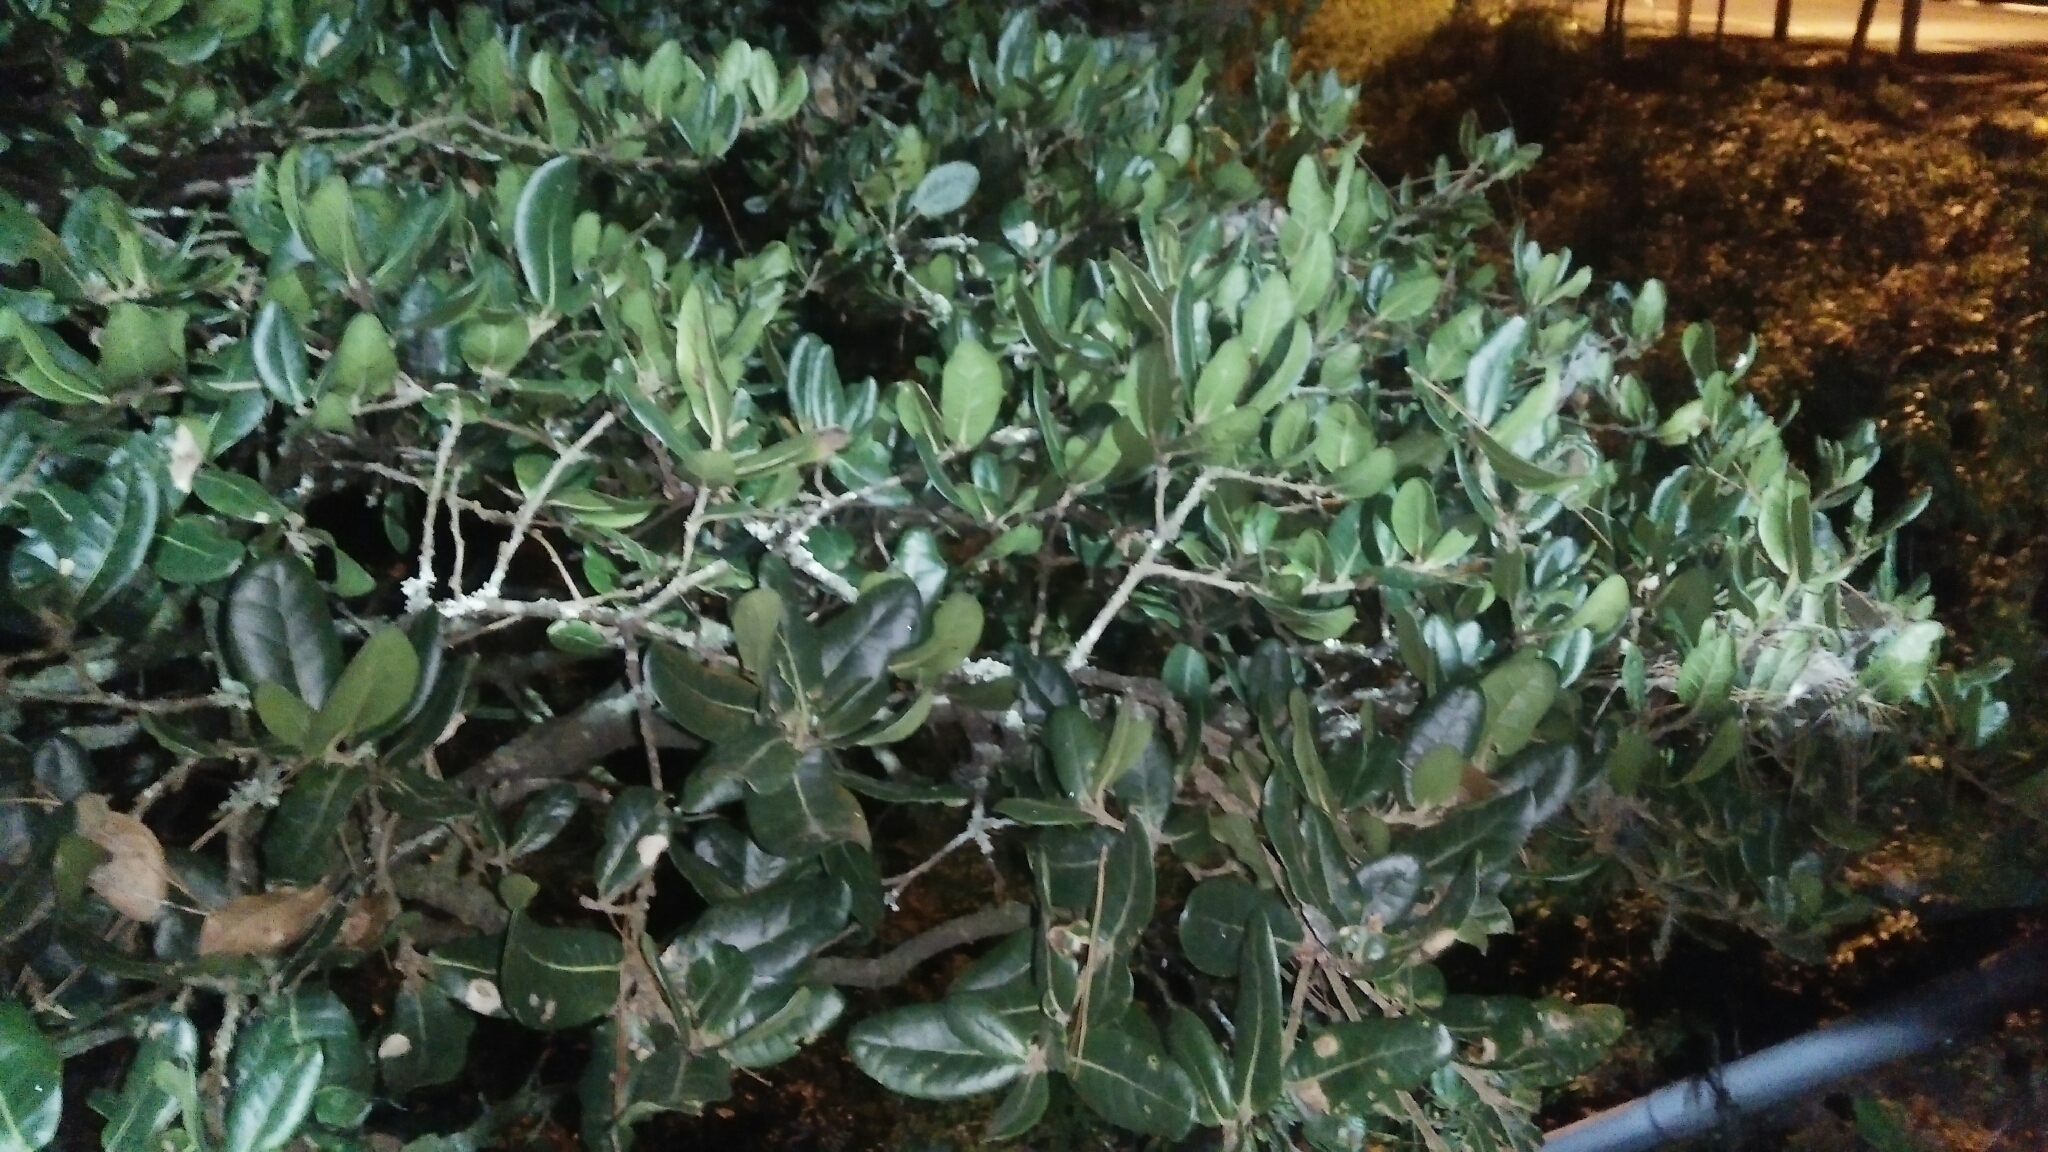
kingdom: Plantae
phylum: Tracheophyta
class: Magnoliopsida
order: Fagales
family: Fagaceae
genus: Quercus
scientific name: Quercus spinosa
